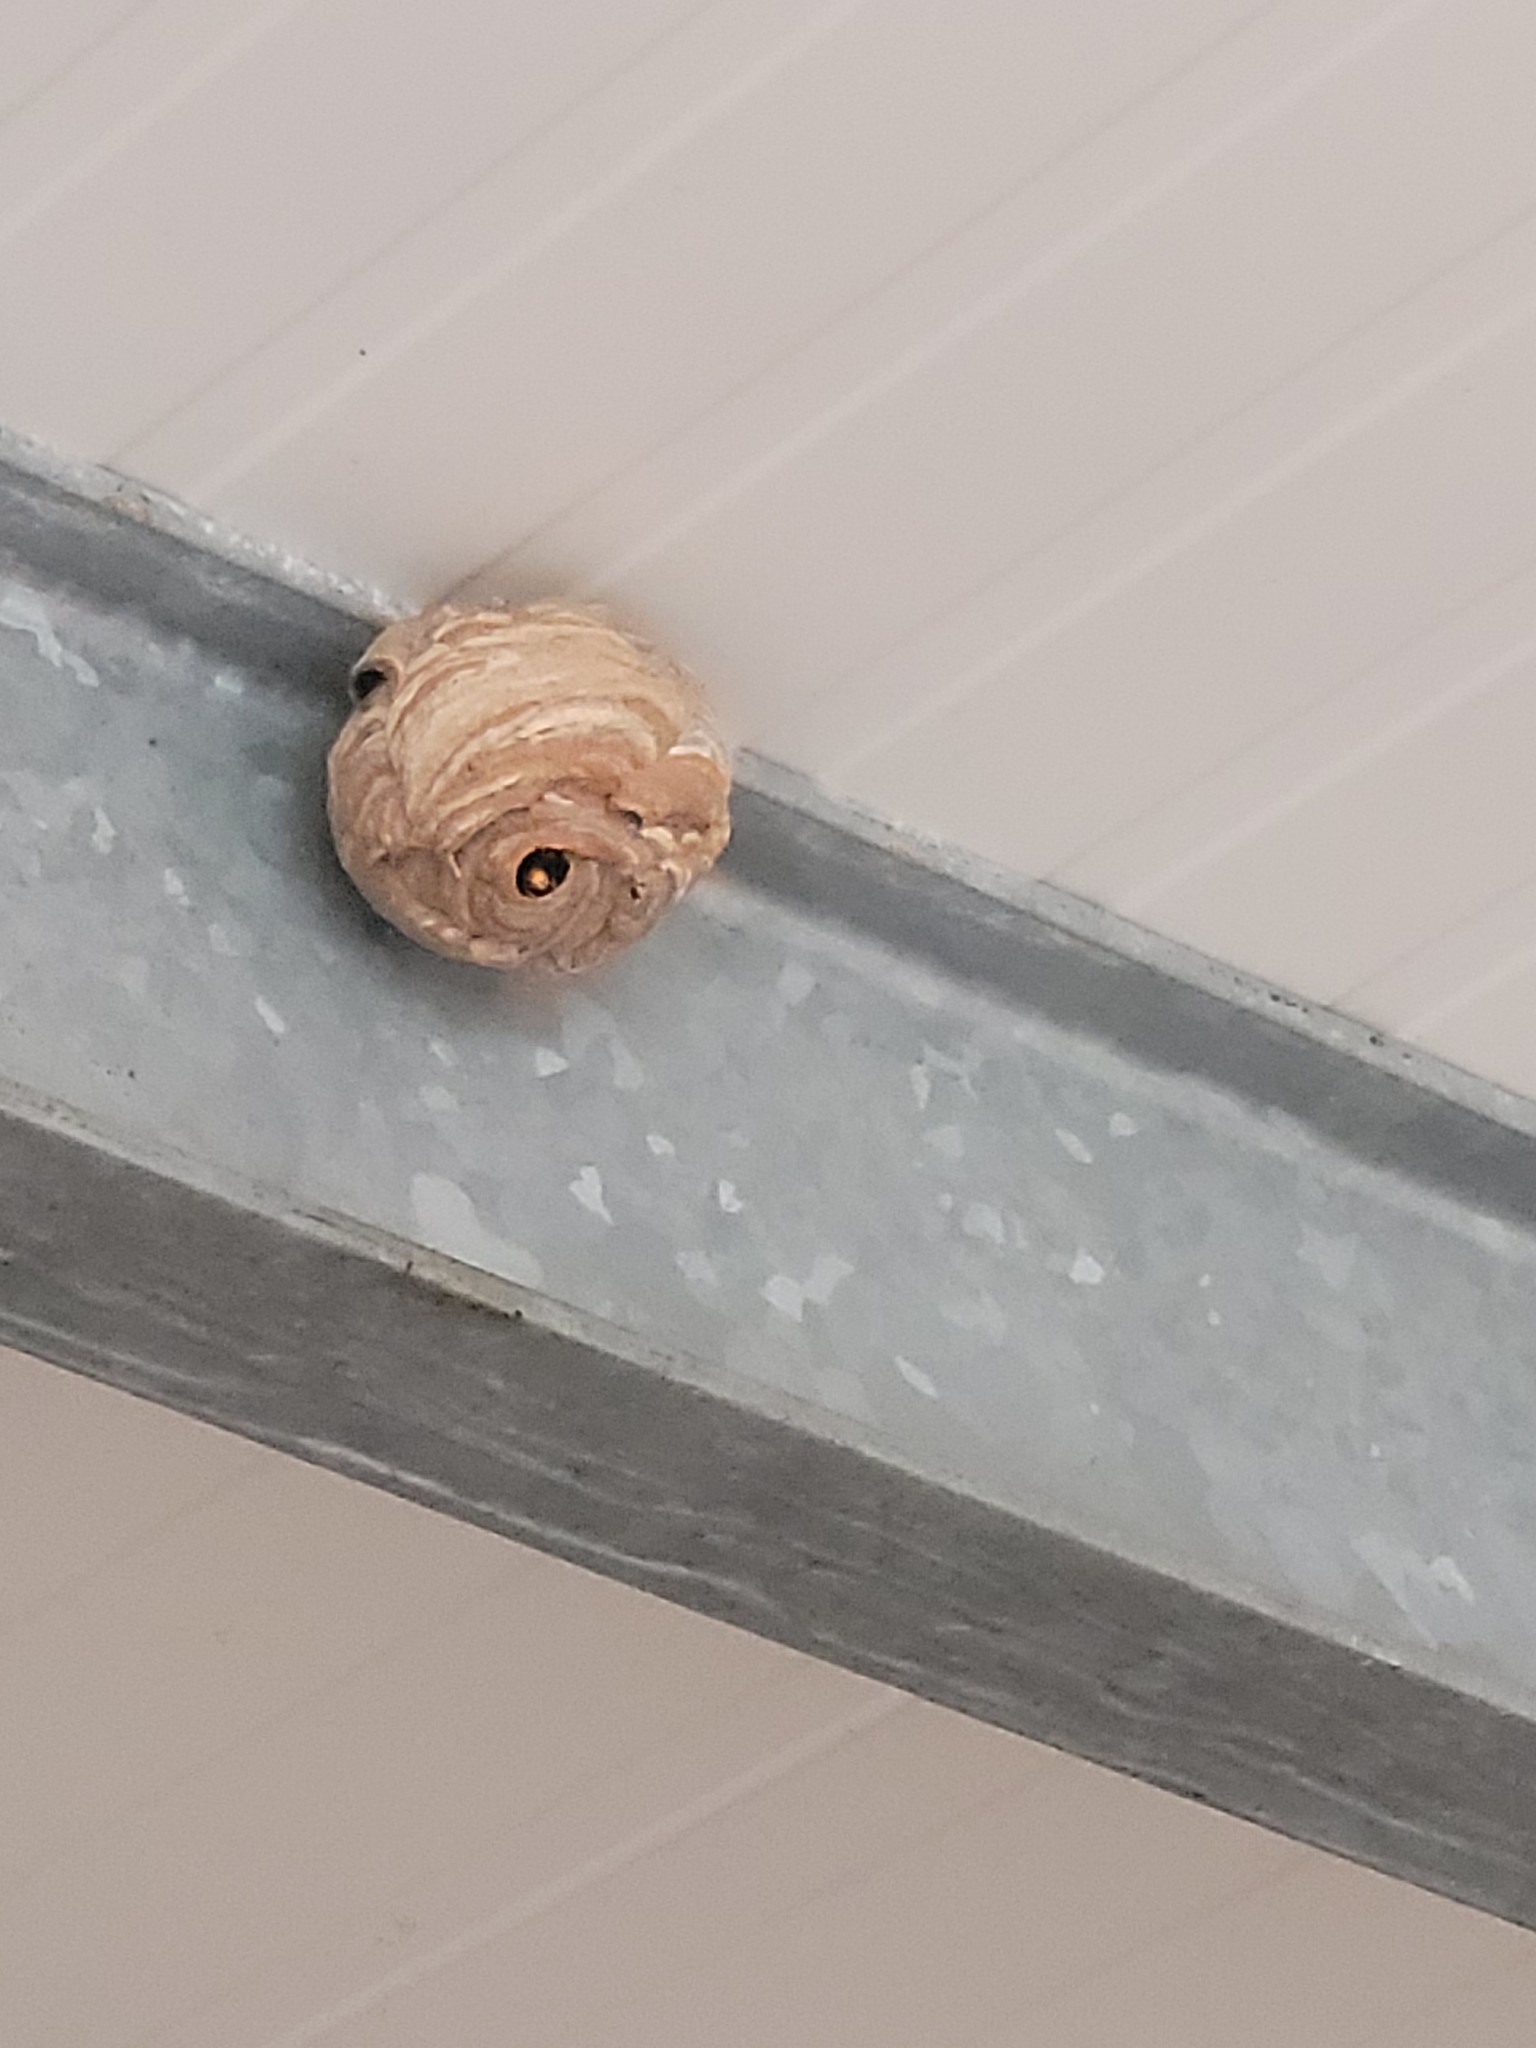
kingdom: Animalia
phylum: Arthropoda
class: Insecta
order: Hymenoptera
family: Vespidae
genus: Vespa
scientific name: Vespa velutina
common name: Asian hornet
